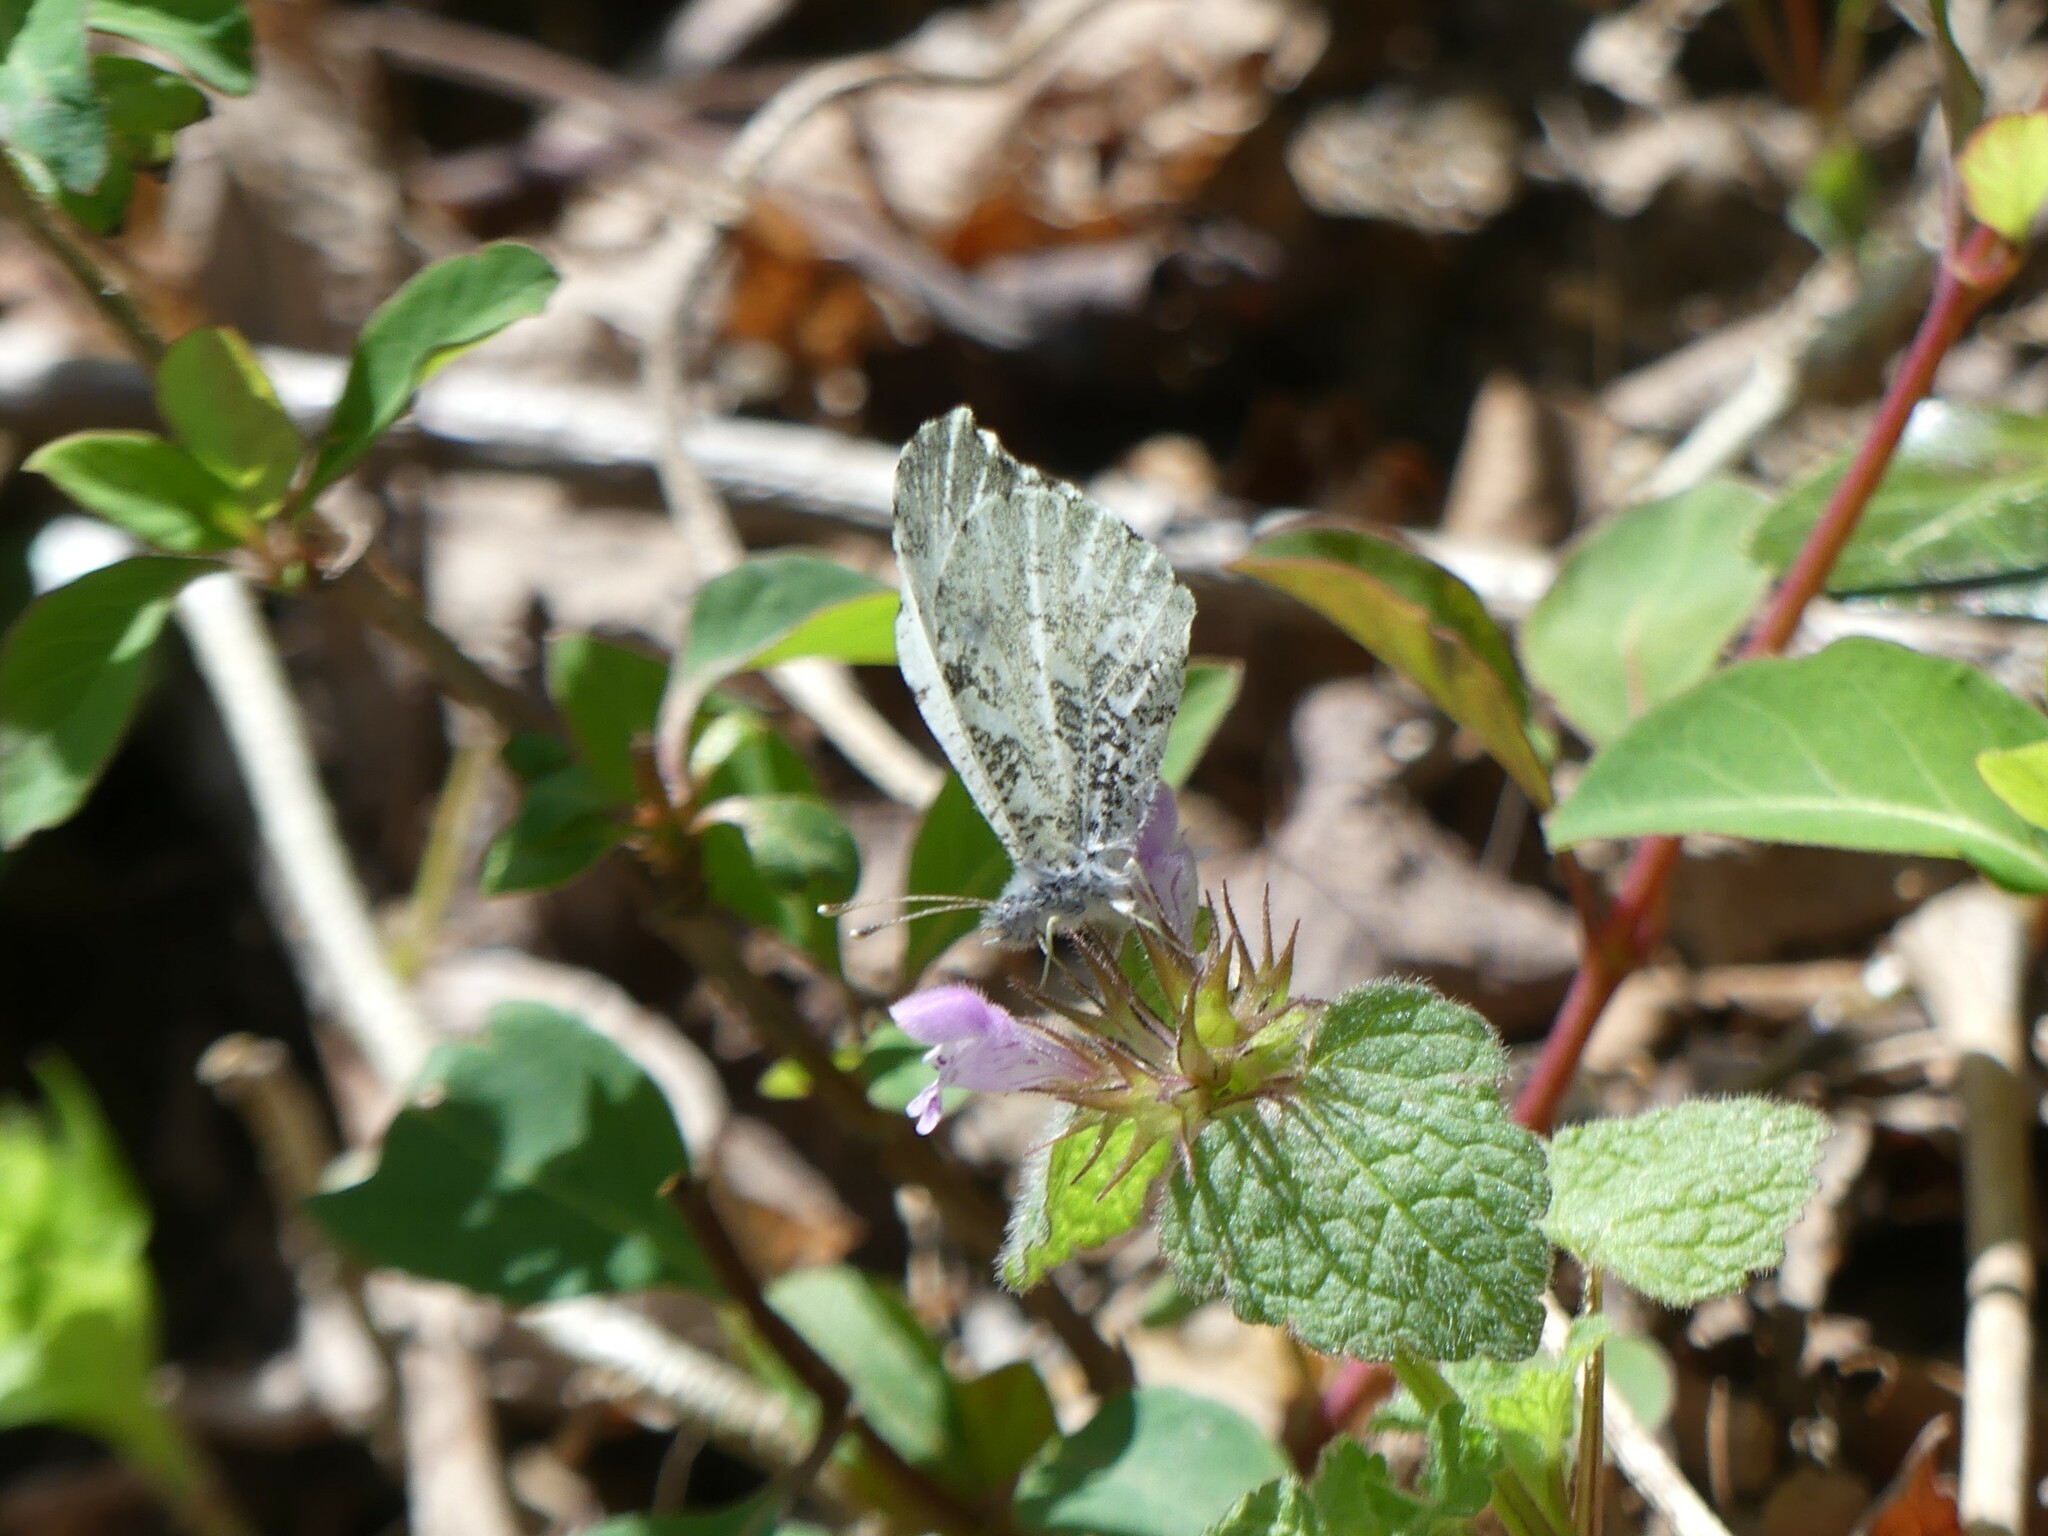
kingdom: Animalia
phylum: Arthropoda
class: Insecta
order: Lepidoptera
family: Pieridae
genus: Anthocharis
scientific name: Anthocharis midea
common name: Falcate orangetip
